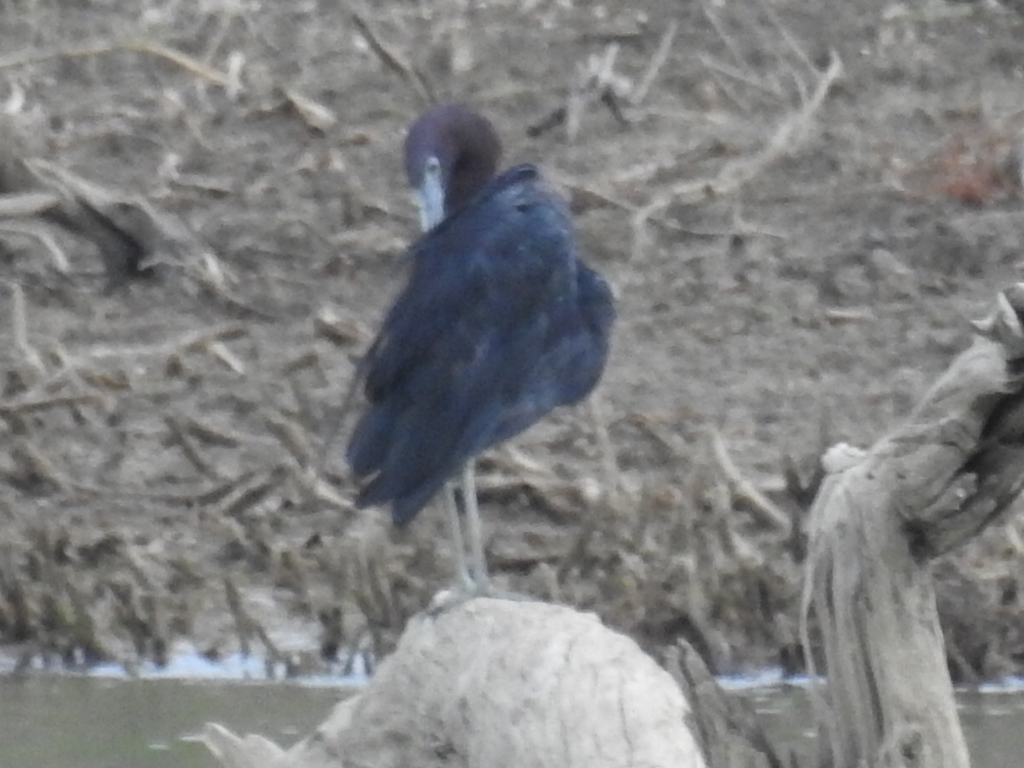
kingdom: Animalia
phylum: Chordata
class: Aves
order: Pelecaniformes
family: Ardeidae
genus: Egretta
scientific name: Egretta caerulea
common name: Little blue heron
